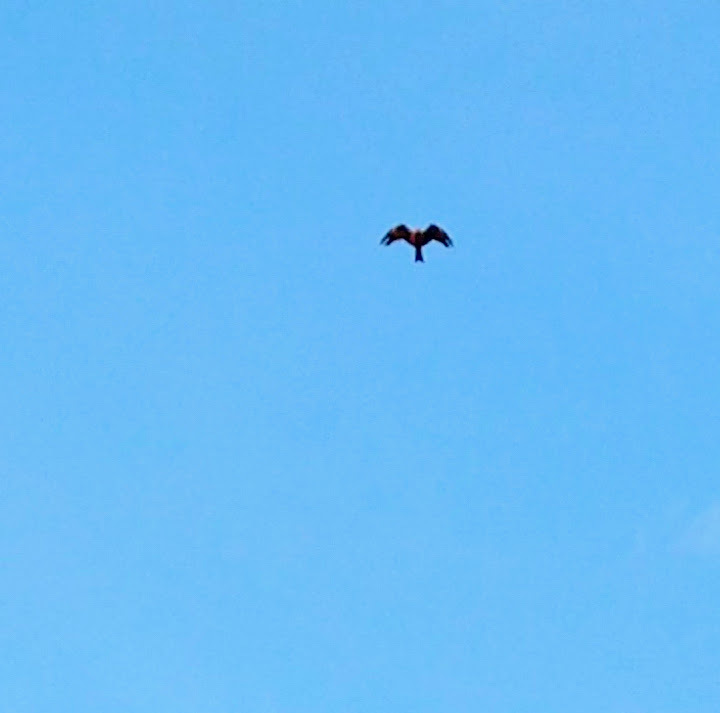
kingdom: Animalia
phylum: Chordata
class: Aves
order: Accipitriformes
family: Accipitridae
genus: Milvus
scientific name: Milvus migrans
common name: Black kite
